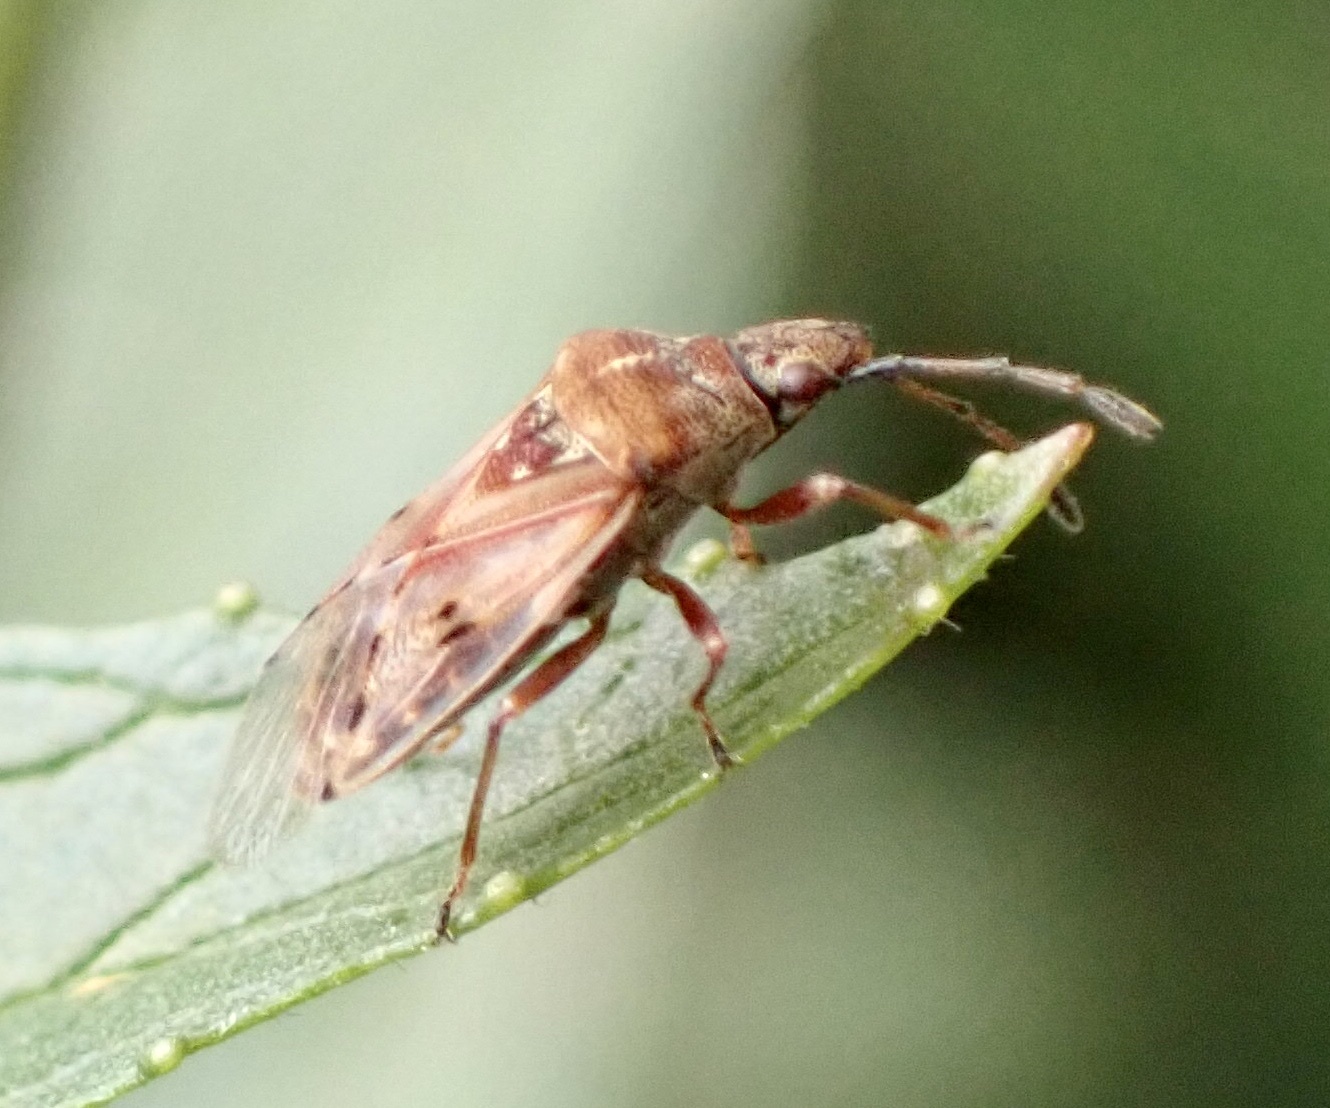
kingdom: Animalia
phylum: Arthropoda
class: Insecta
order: Hemiptera
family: Lygaeidae
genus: Kleidocerys
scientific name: Kleidocerys resedae
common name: Birch catkin bug
